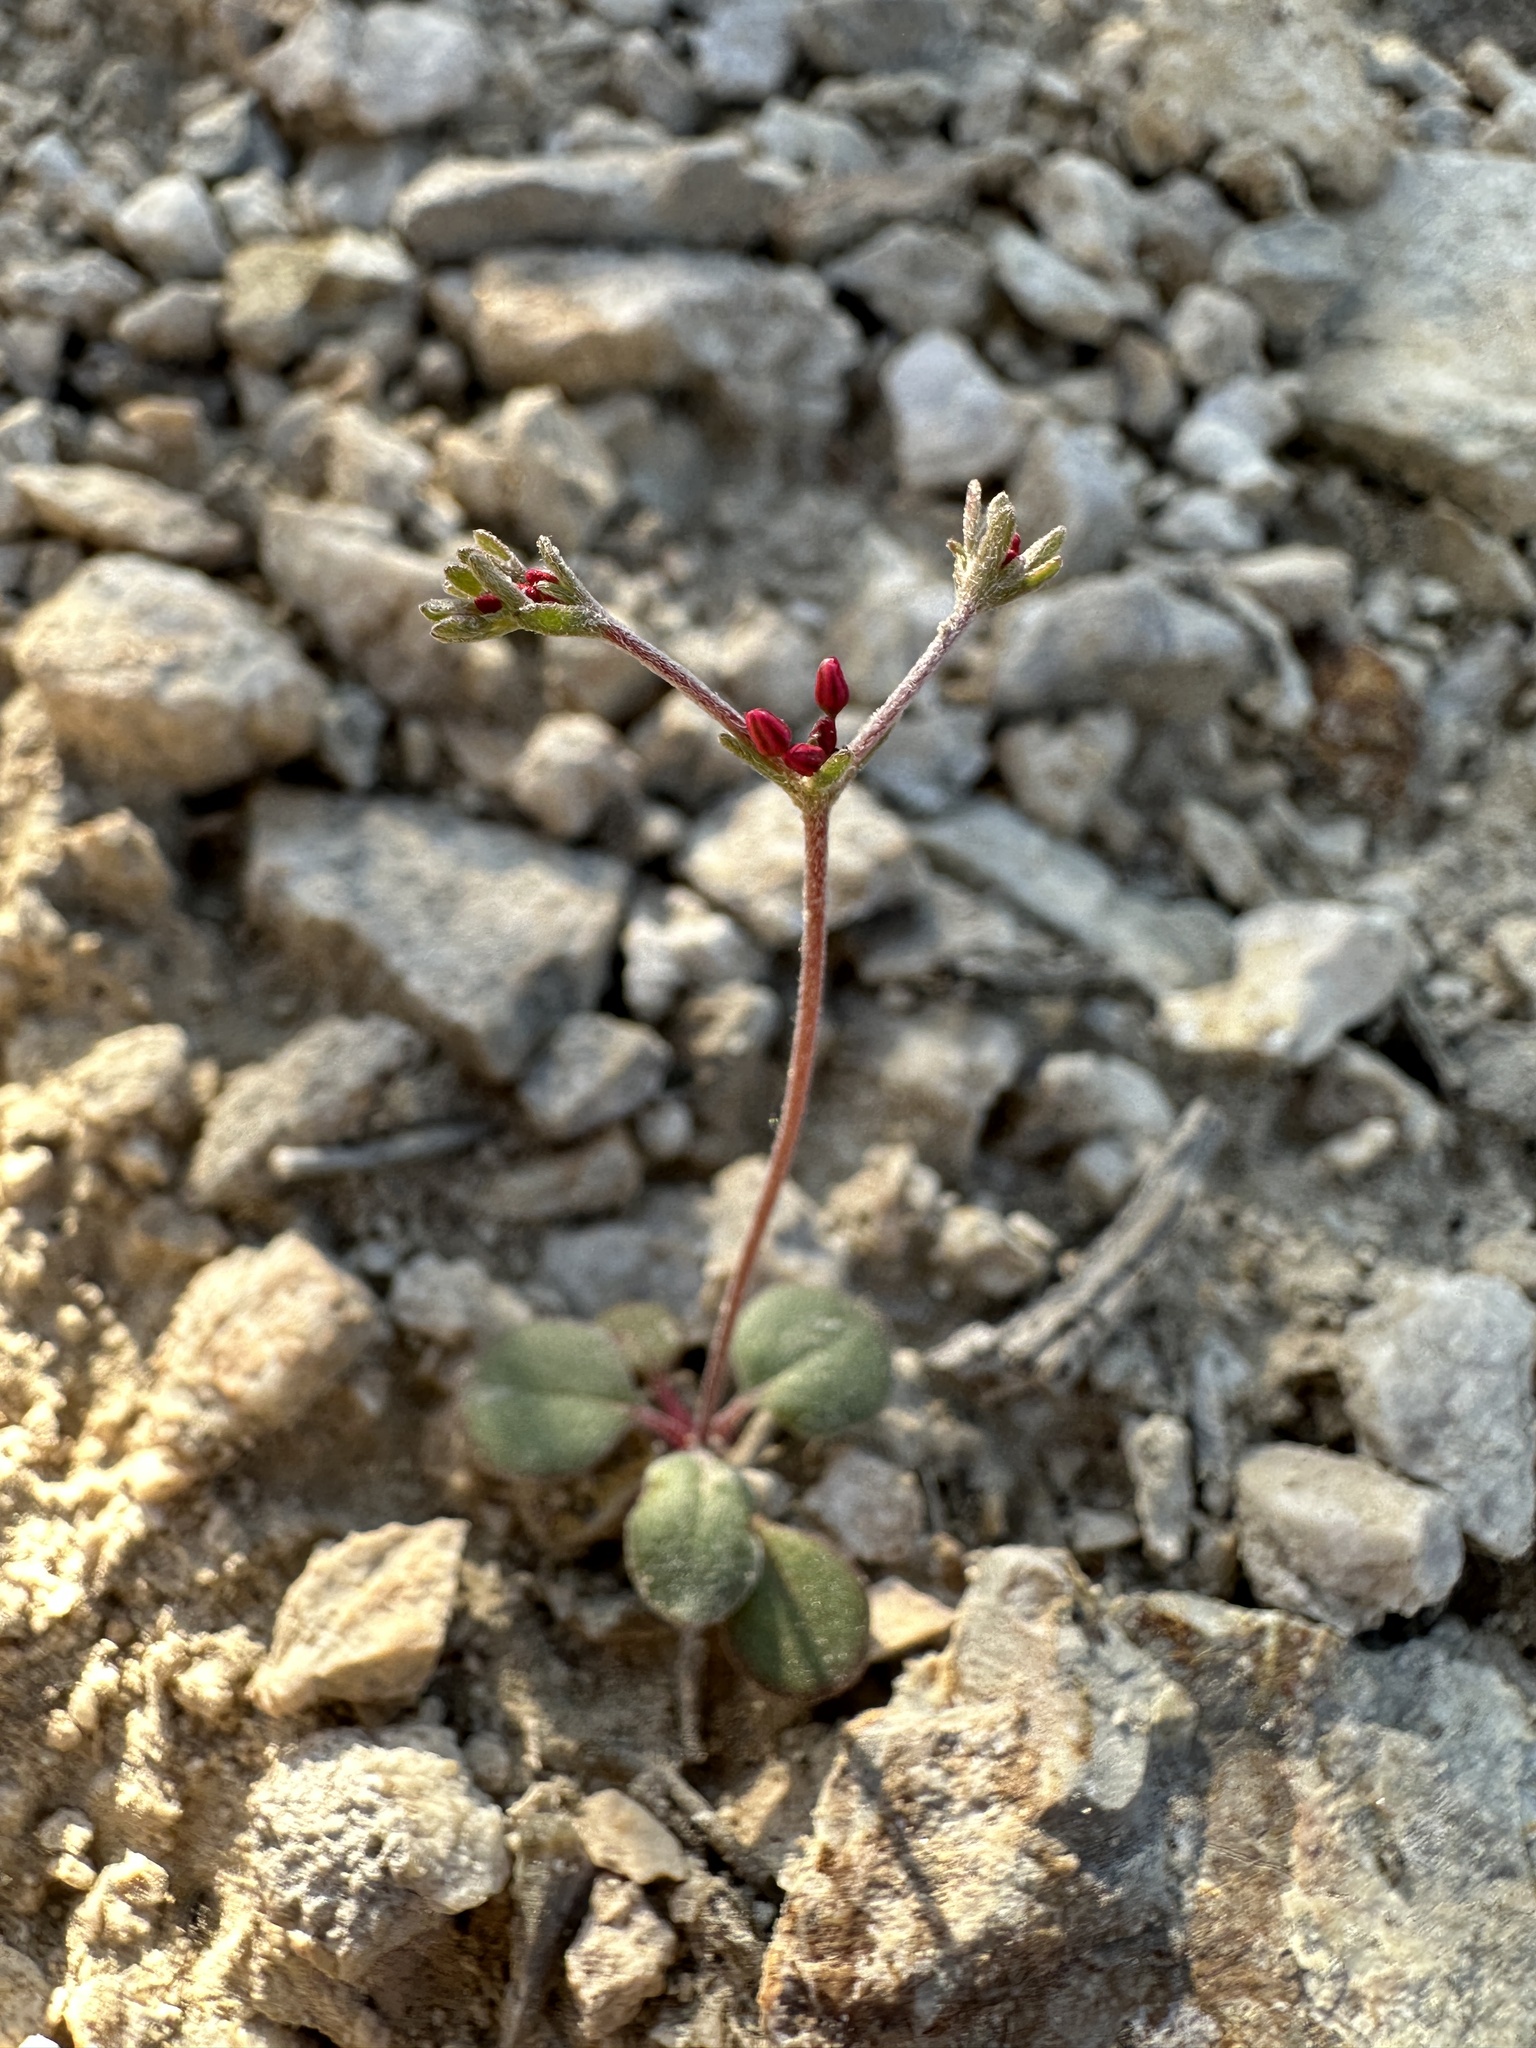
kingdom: Plantae
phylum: Tracheophyta
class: Magnoliopsida
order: Caryophyllales
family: Polygonaceae
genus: Johanneshowellia
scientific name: Johanneshowellia puberula
